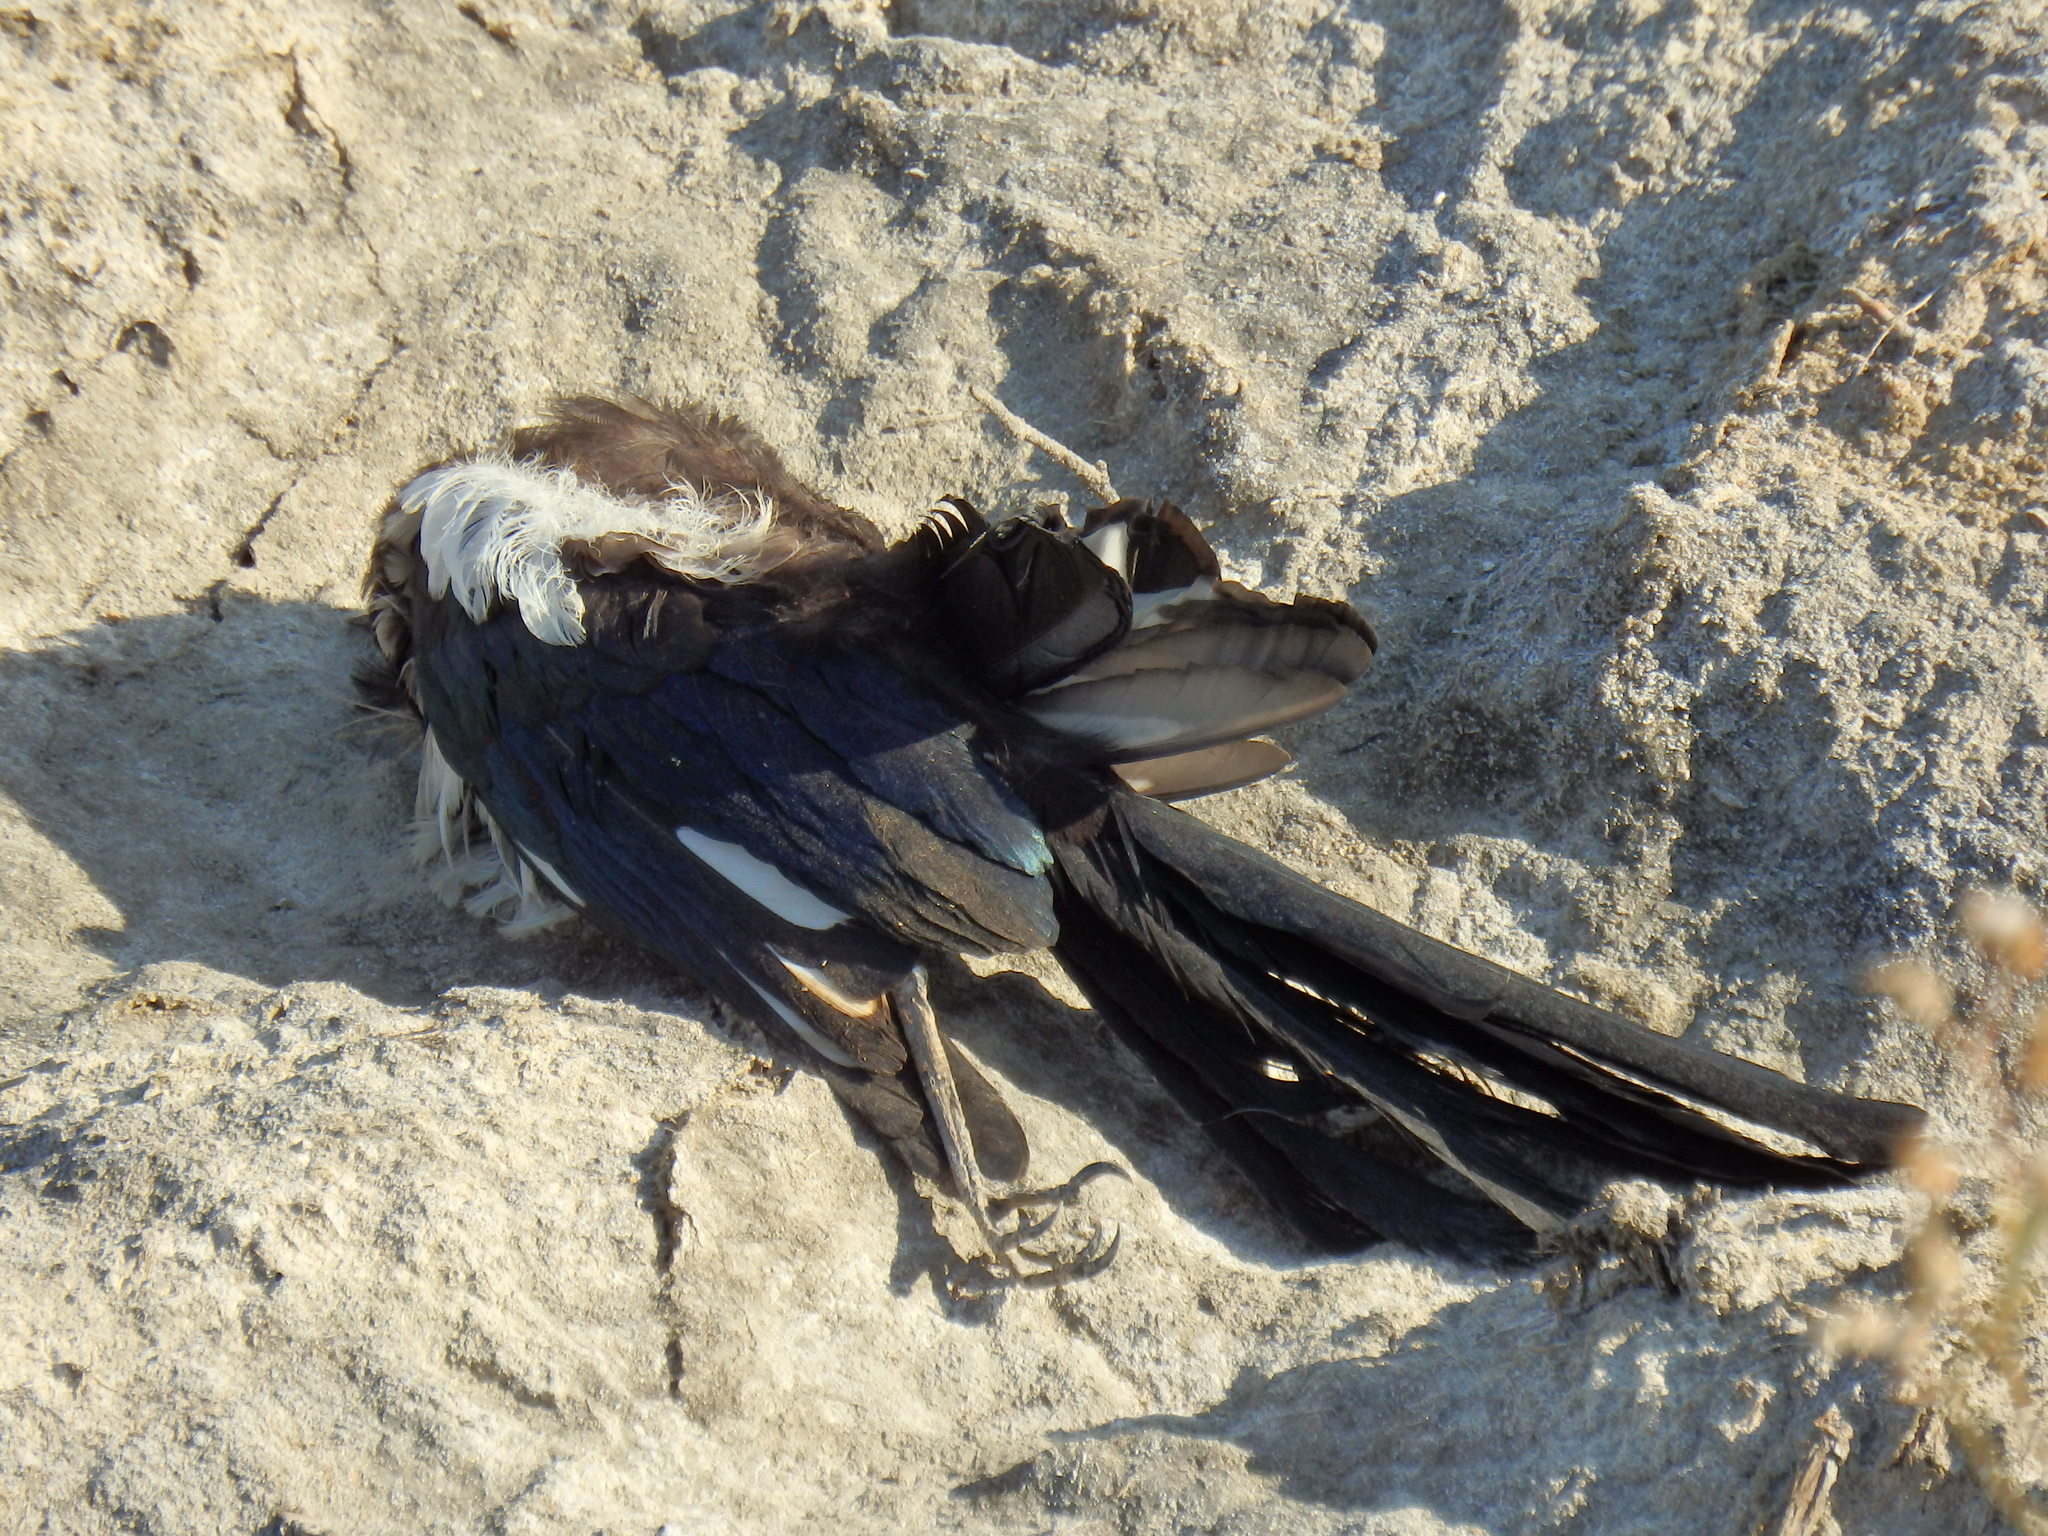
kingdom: Animalia
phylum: Chordata
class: Aves
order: Passeriformes
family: Corvidae
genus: Pica
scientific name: Pica pica
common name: Eurasian magpie
